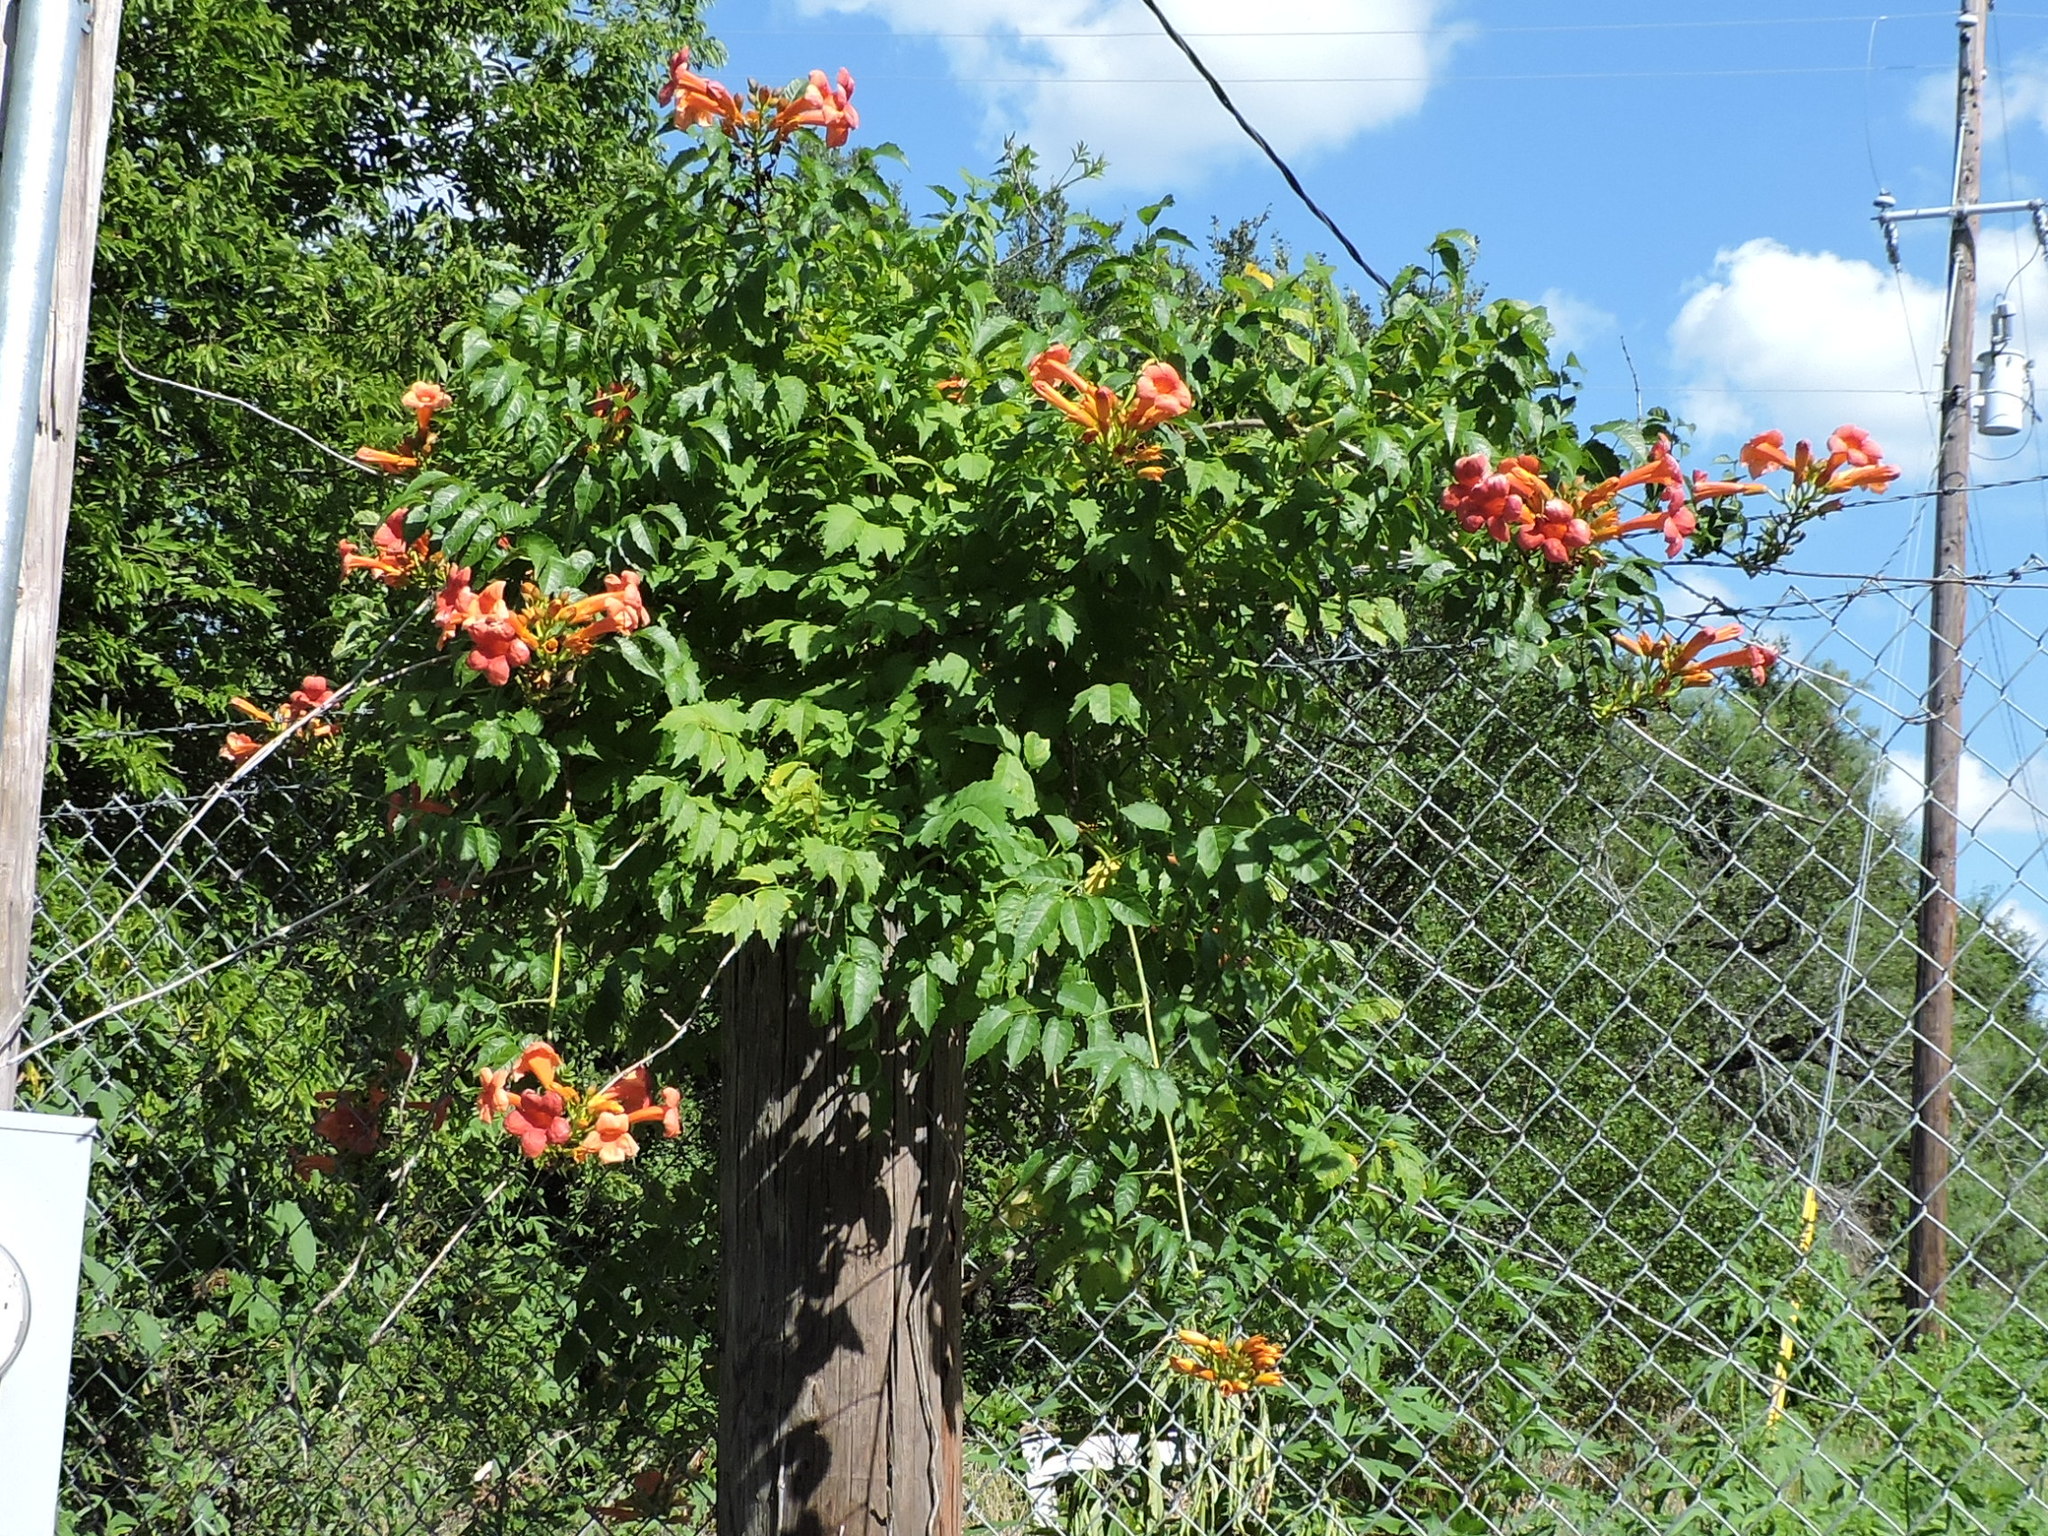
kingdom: Plantae
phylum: Tracheophyta
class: Magnoliopsida
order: Lamiales
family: Bignoniaceae
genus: Campsis
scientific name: Campsis radicans
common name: Trumpet-creeper
